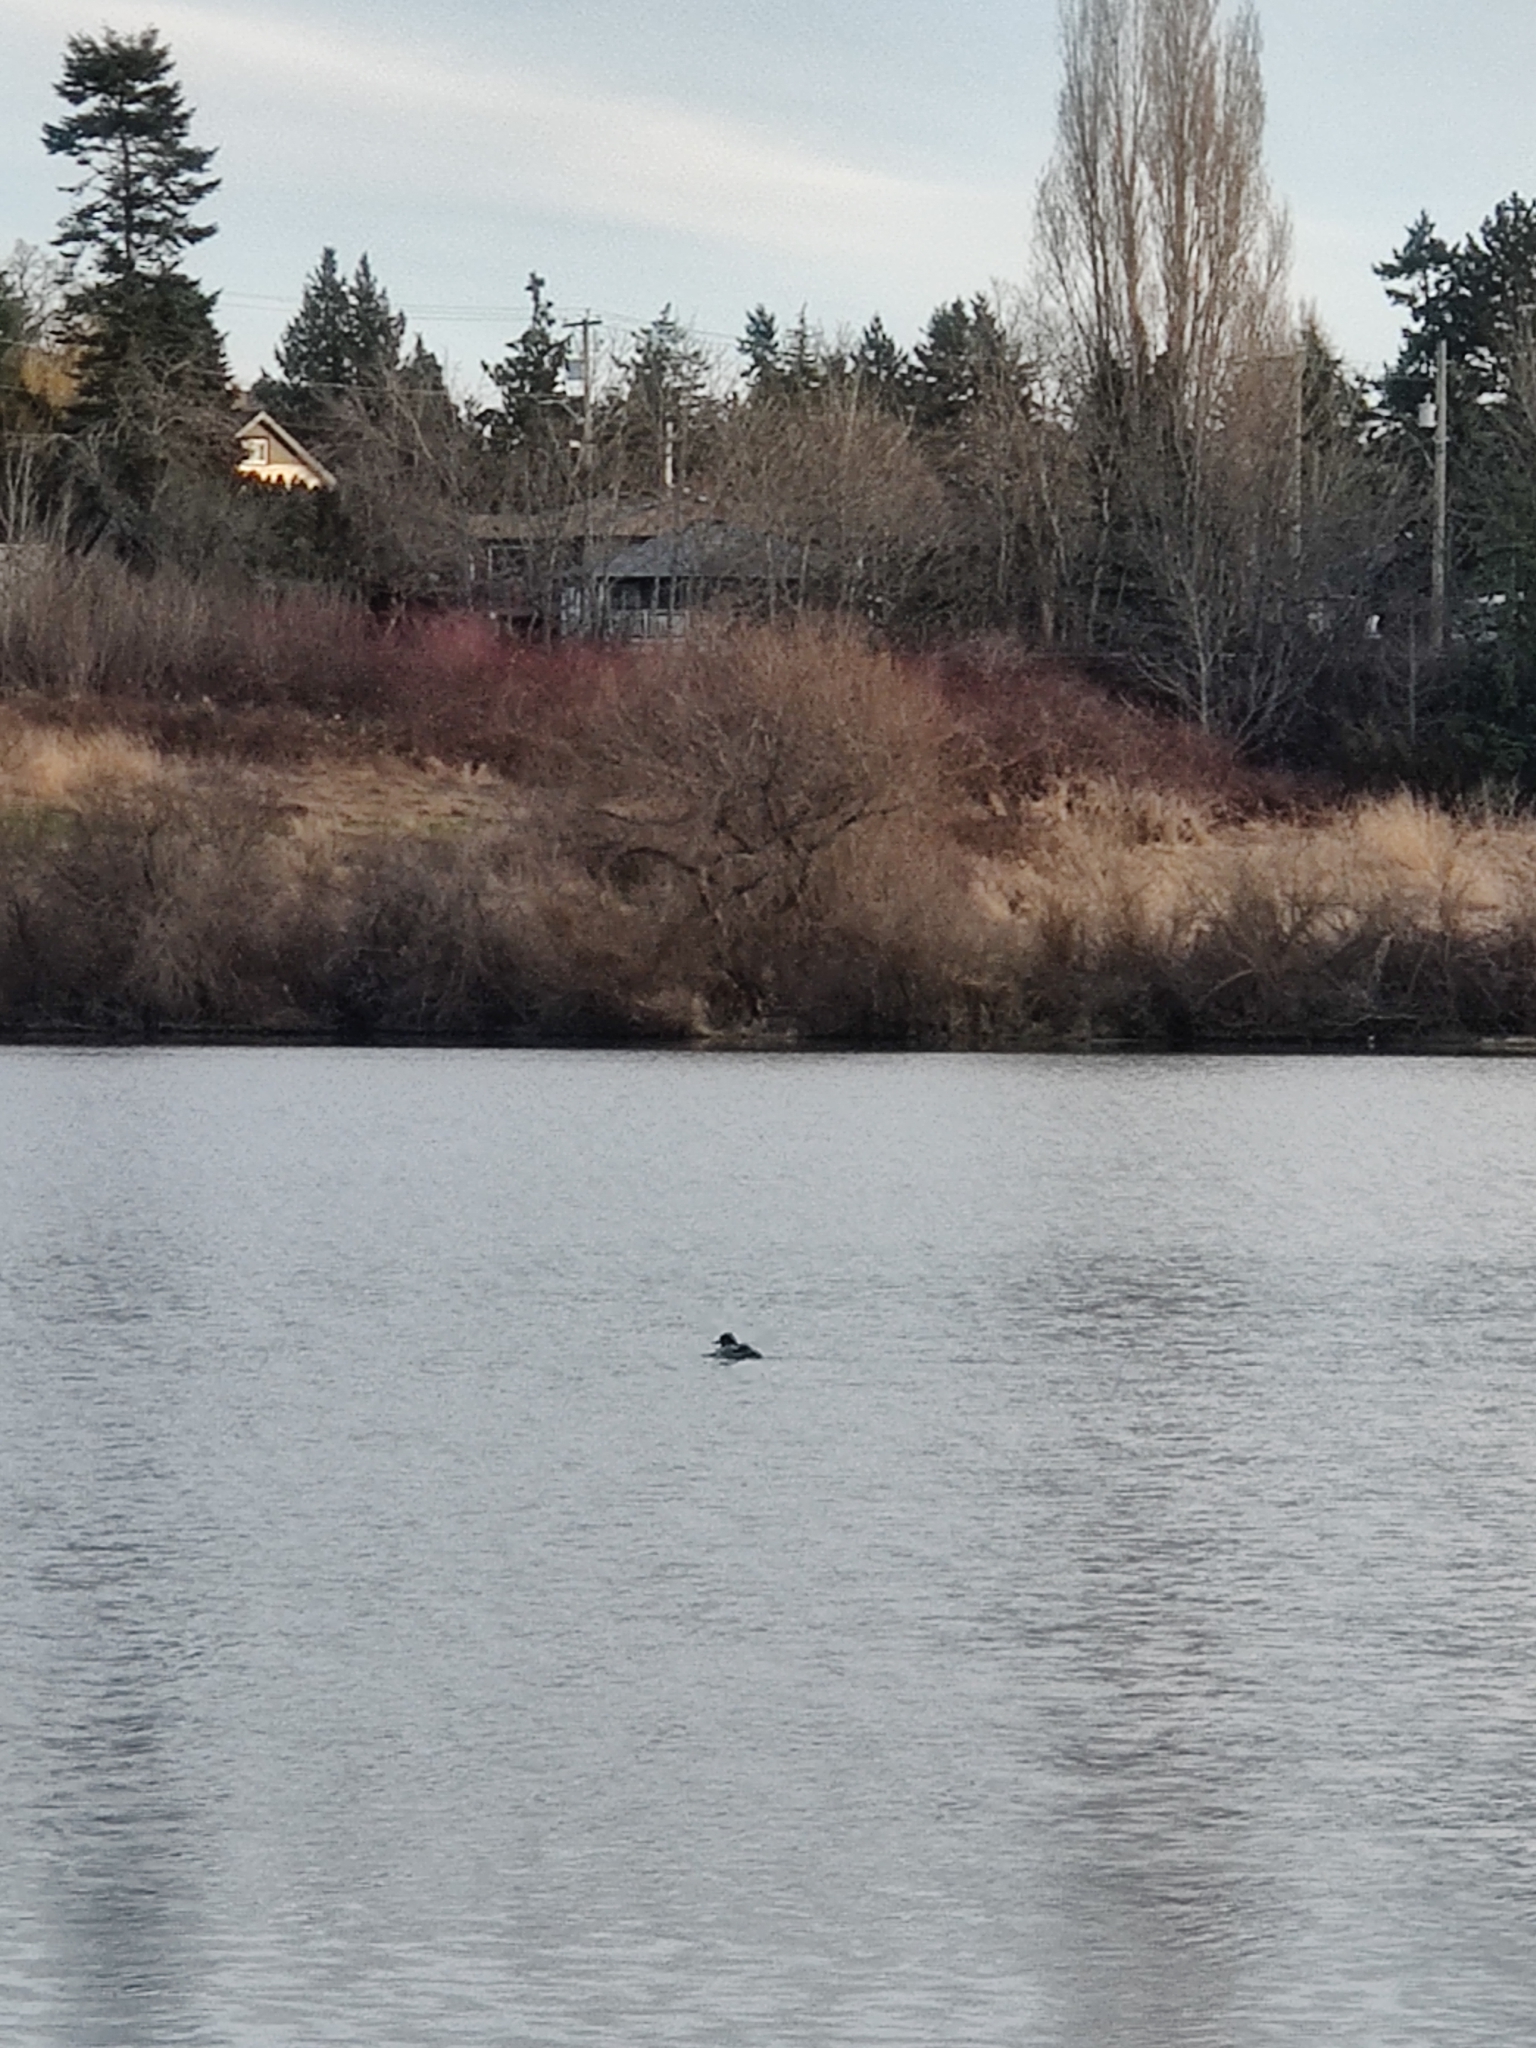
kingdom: Animalia
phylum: Chordata
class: Aves
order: Anseriformes
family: Anatidae
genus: Mergus
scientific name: Mergus merganser
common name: Common merganser
